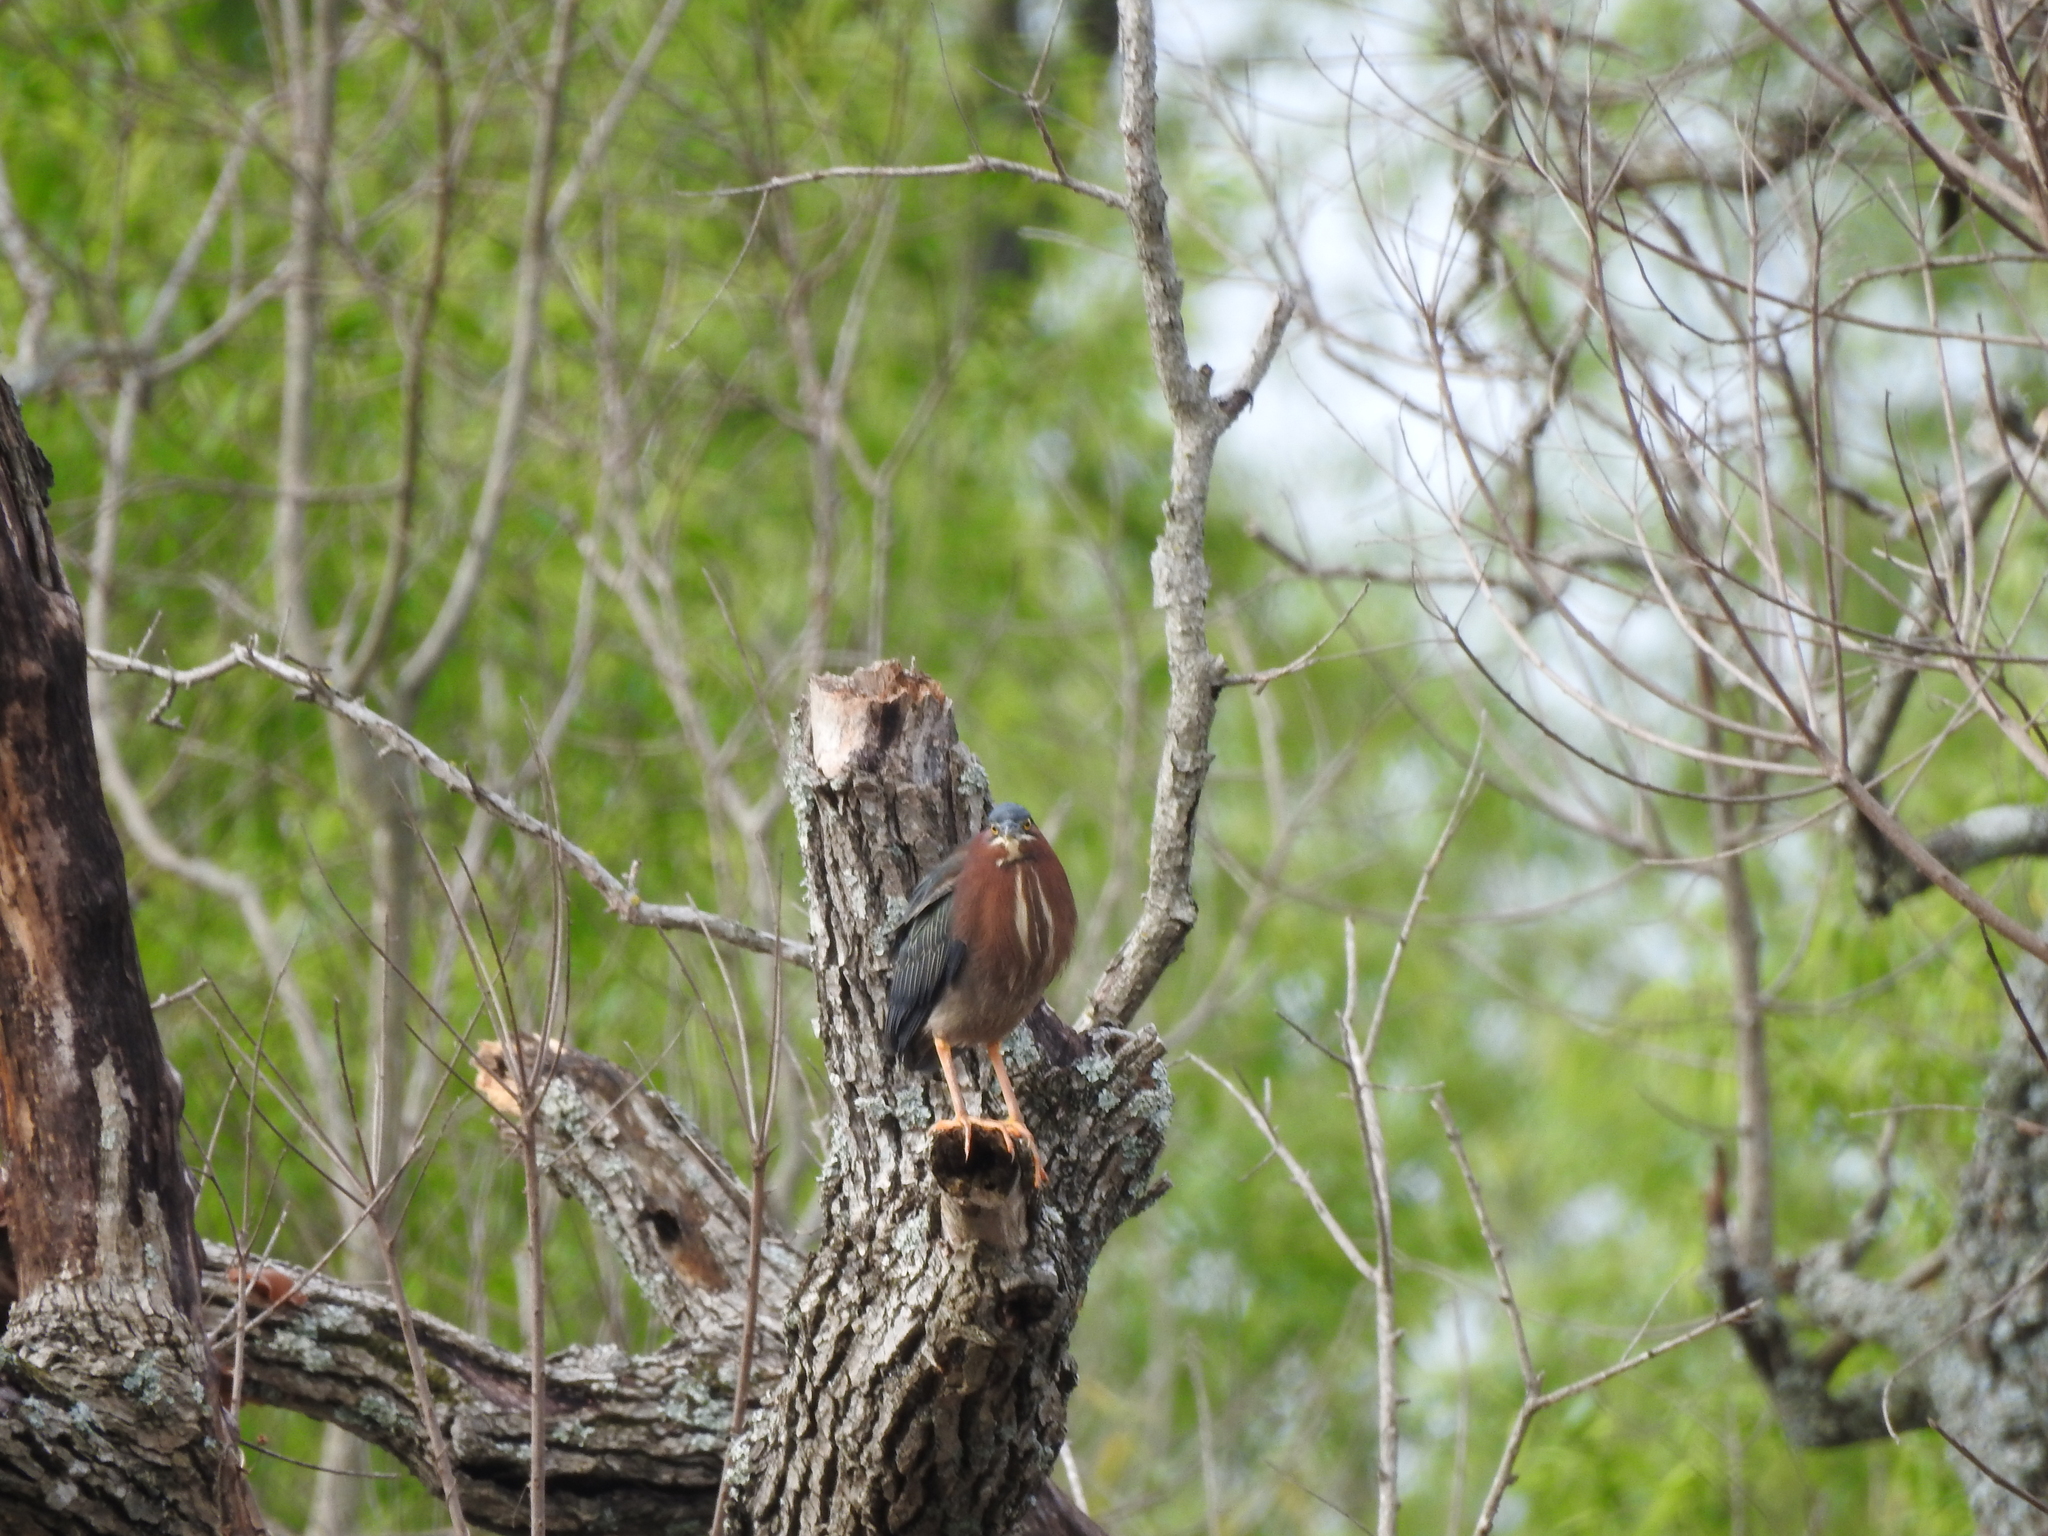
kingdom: Animalia
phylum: Chordata
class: Aves
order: Pelecaniformes
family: Ardeidae
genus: Butorides
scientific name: Butorides virescens
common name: Green heron
